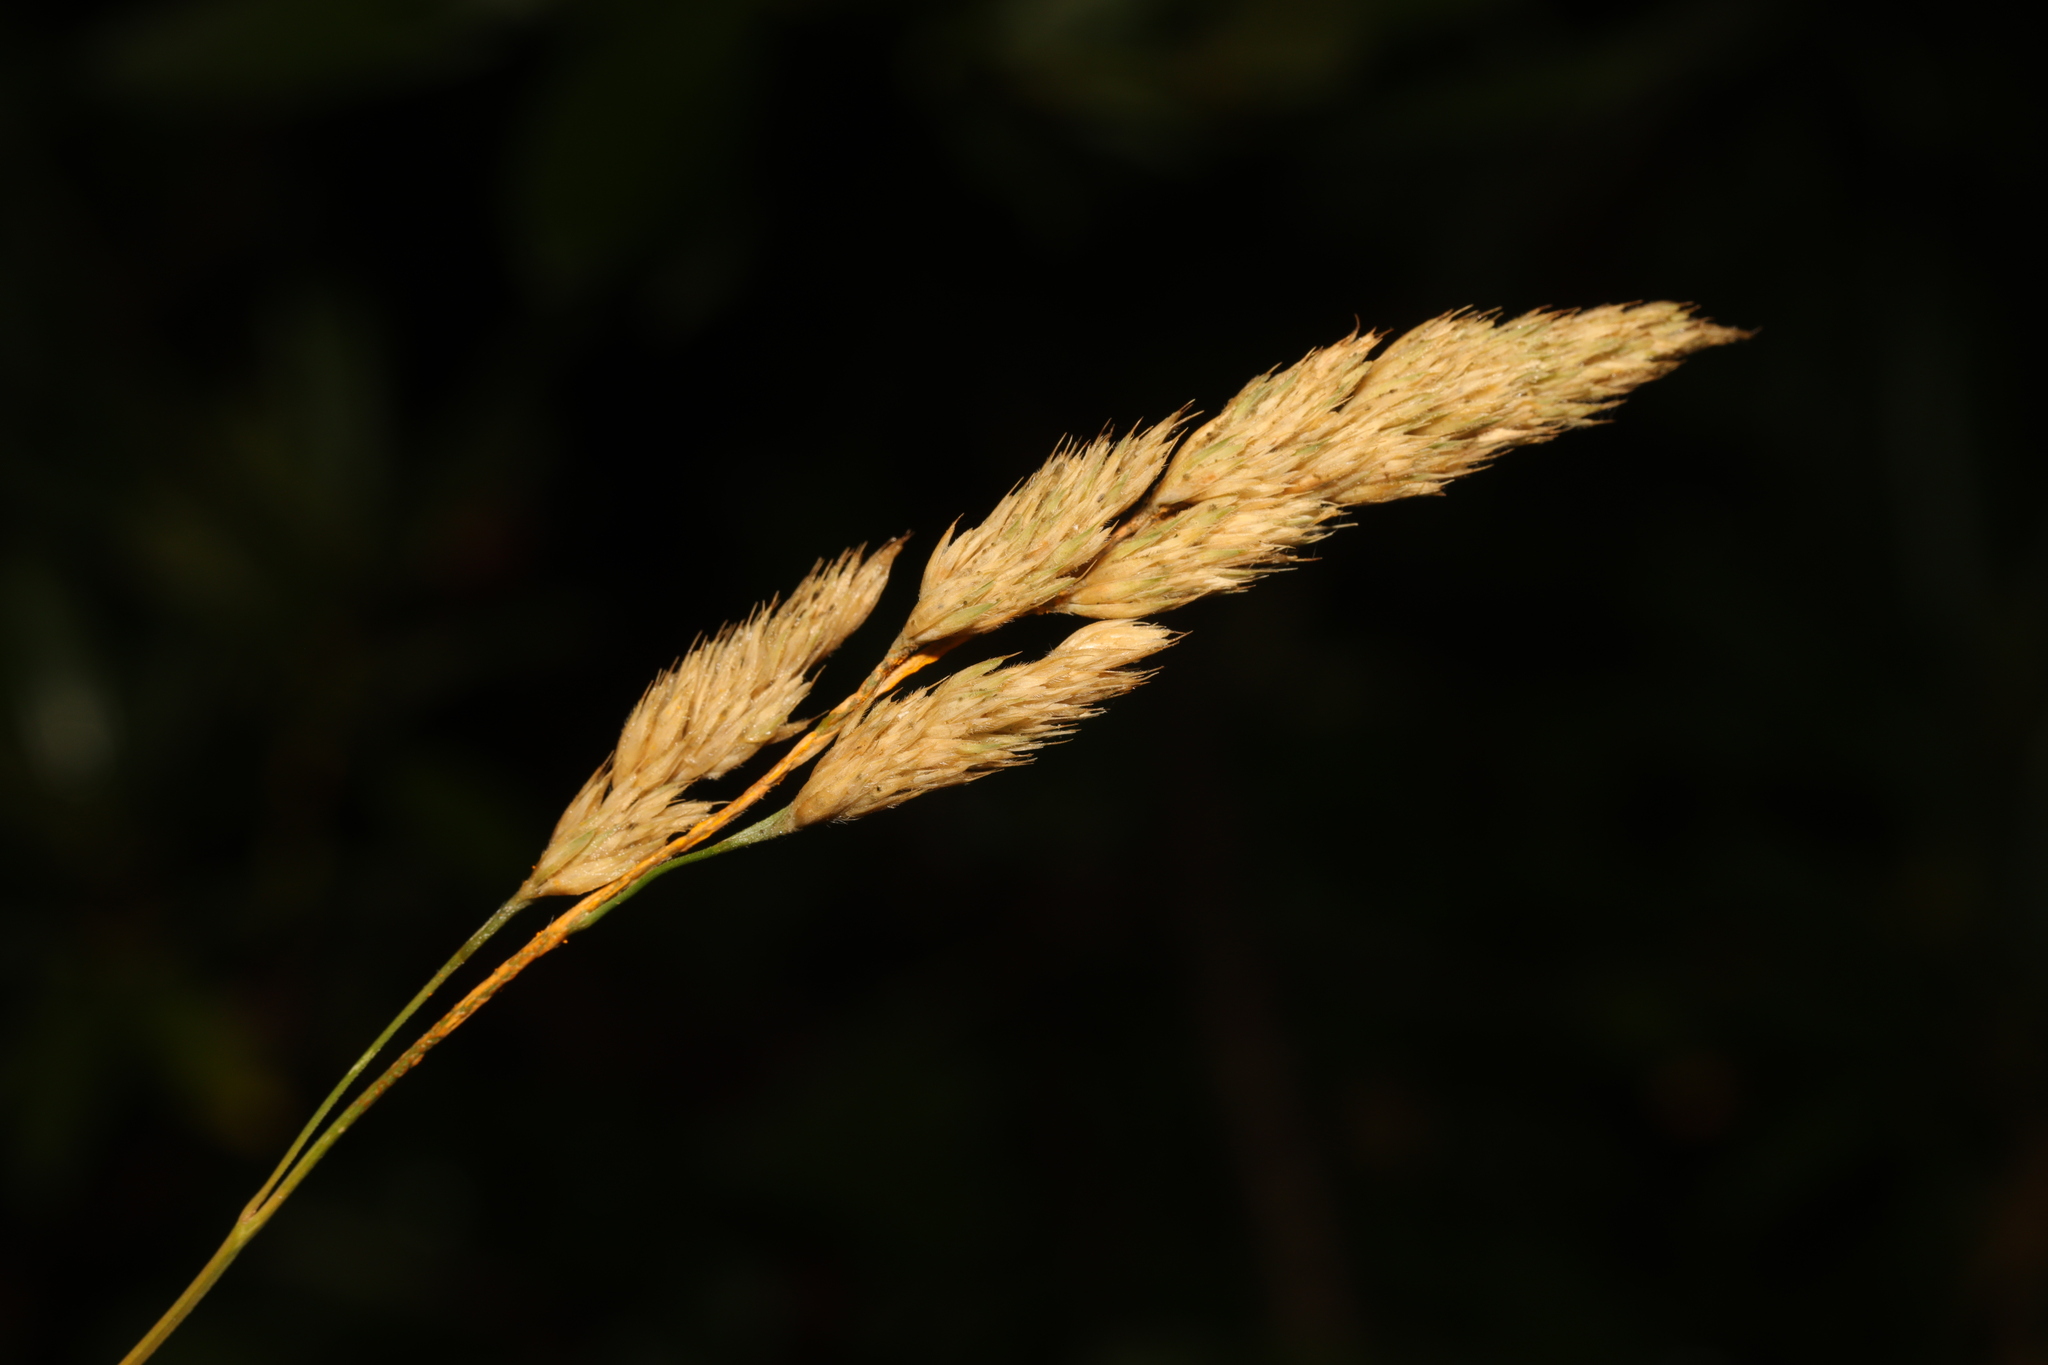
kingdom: Plantae
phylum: Tracheophyta
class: Liliopsida
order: Poales
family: Poaceae
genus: Dactylis
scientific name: Dactylis glomerata
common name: Orchardgrass
